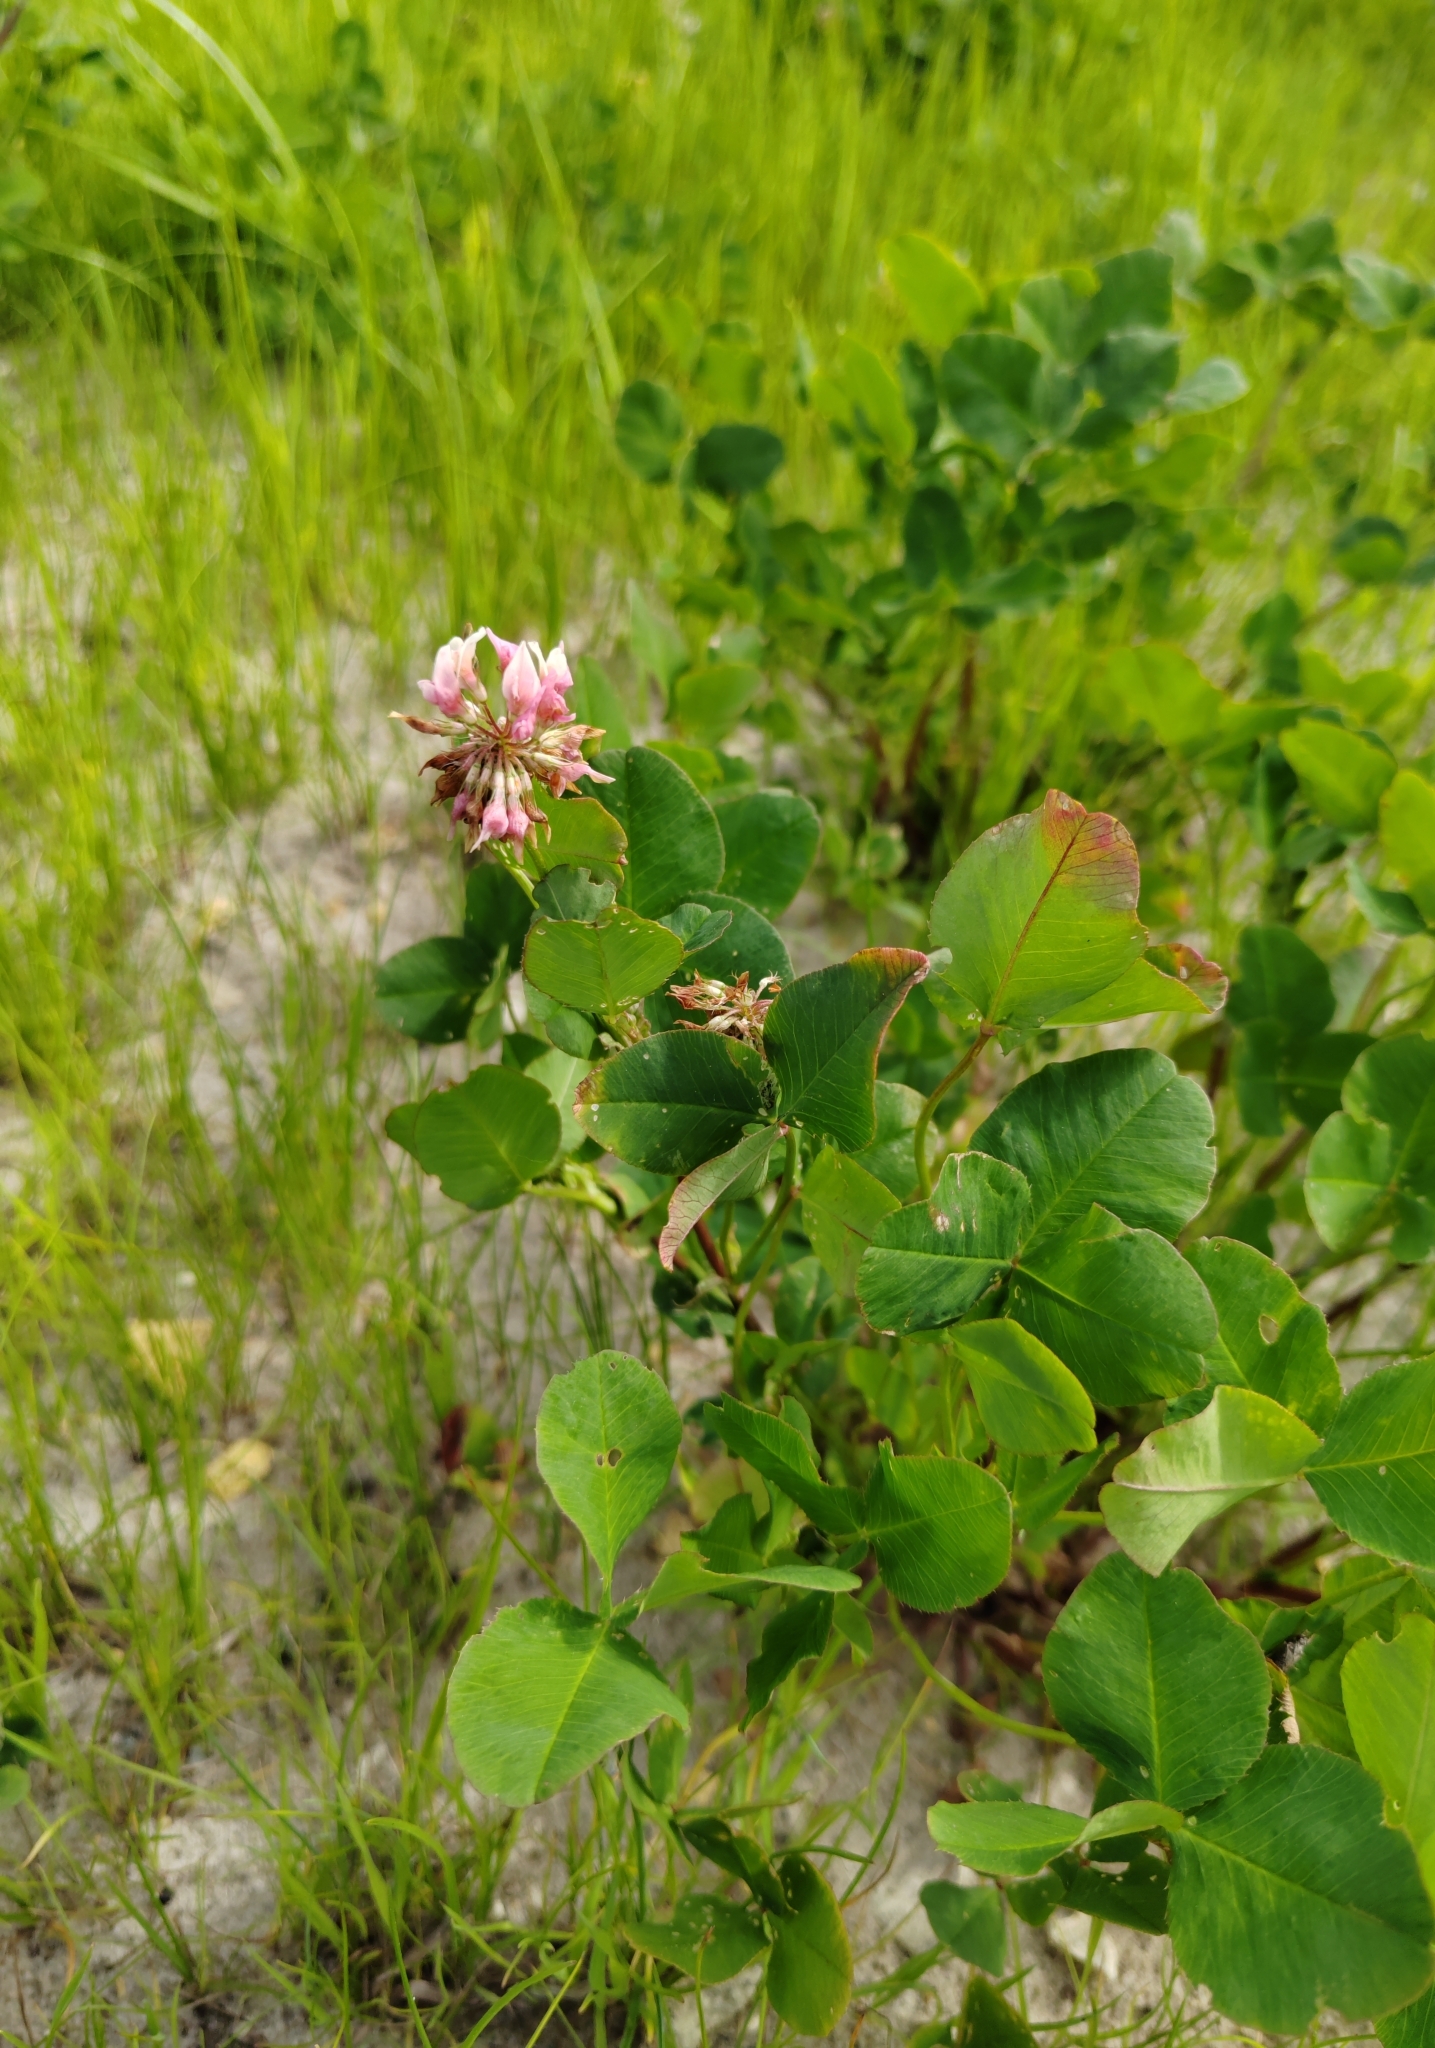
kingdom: Plantae
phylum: Tracheophyta
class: Magnoliopsida
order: Fabales
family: Fabaceae
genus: Trifolium
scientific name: Trifolium hybridum
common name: Alsike clover
